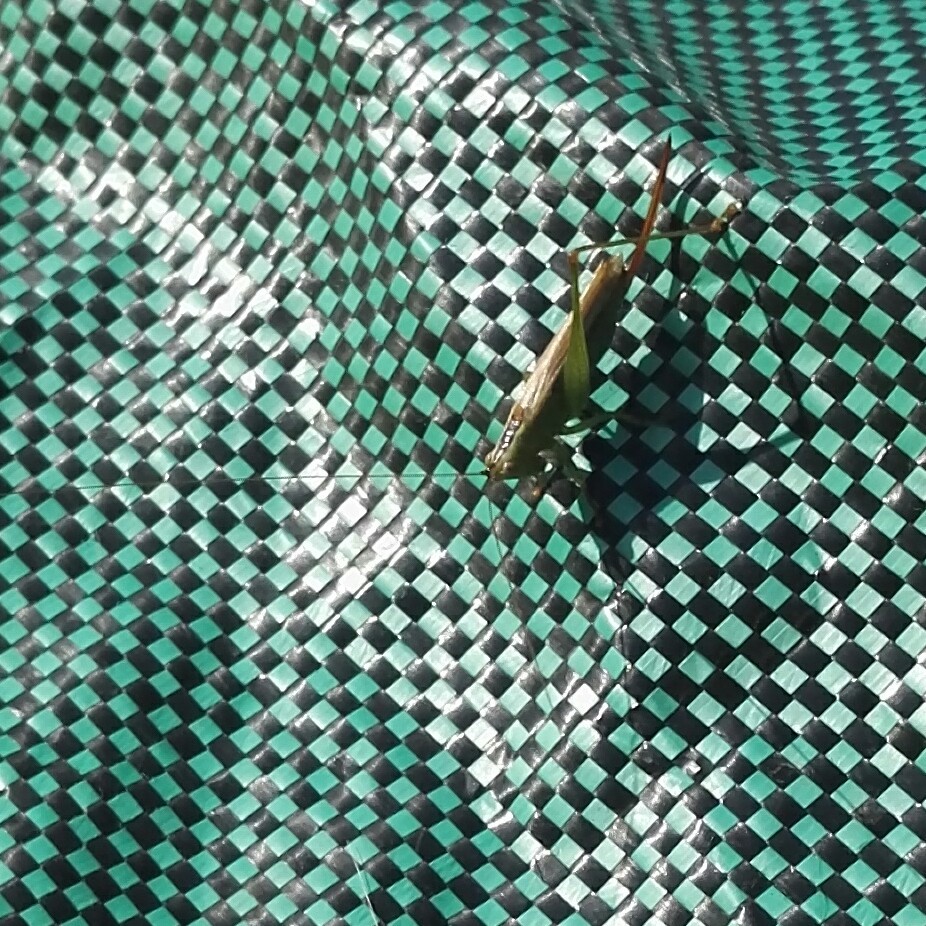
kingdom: Animalia
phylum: Arthropoda
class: Insecta
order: Orthoptera
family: Tettigoniidae
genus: Conocephalus
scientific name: Conocephalus fuscus
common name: Long-winged conehead
